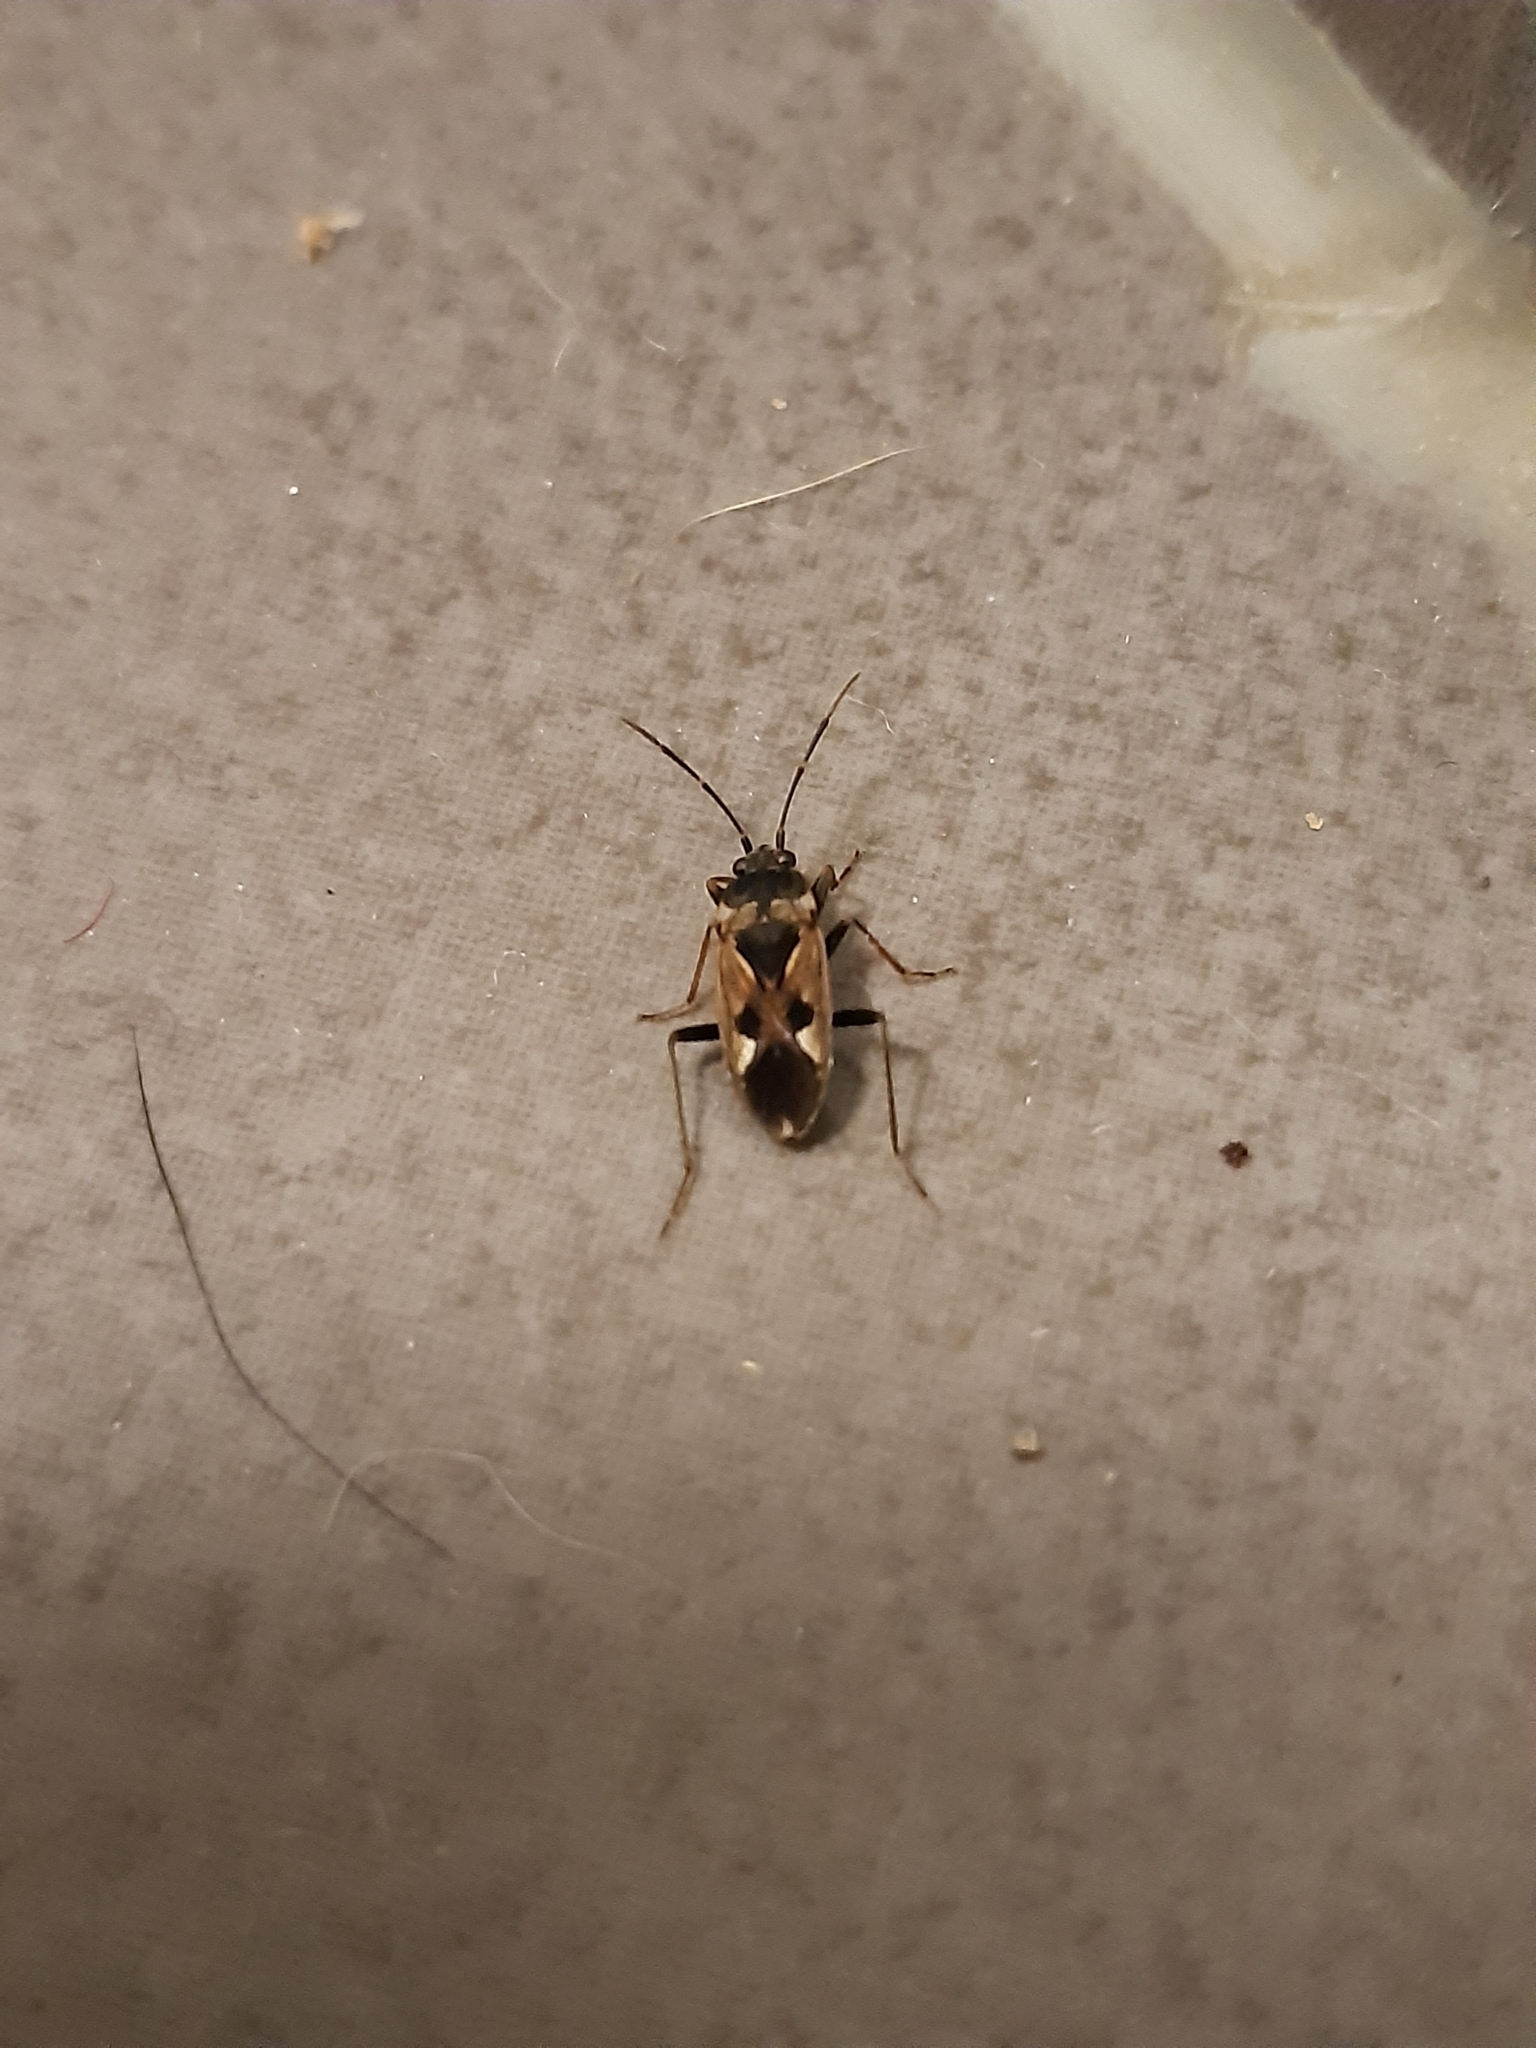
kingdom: Animalia
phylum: Arthropoda
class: Insecta
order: Hemiptera
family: Rhyparochromidae
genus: Rhyparochromus
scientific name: Rhyparochromus vulgaris
